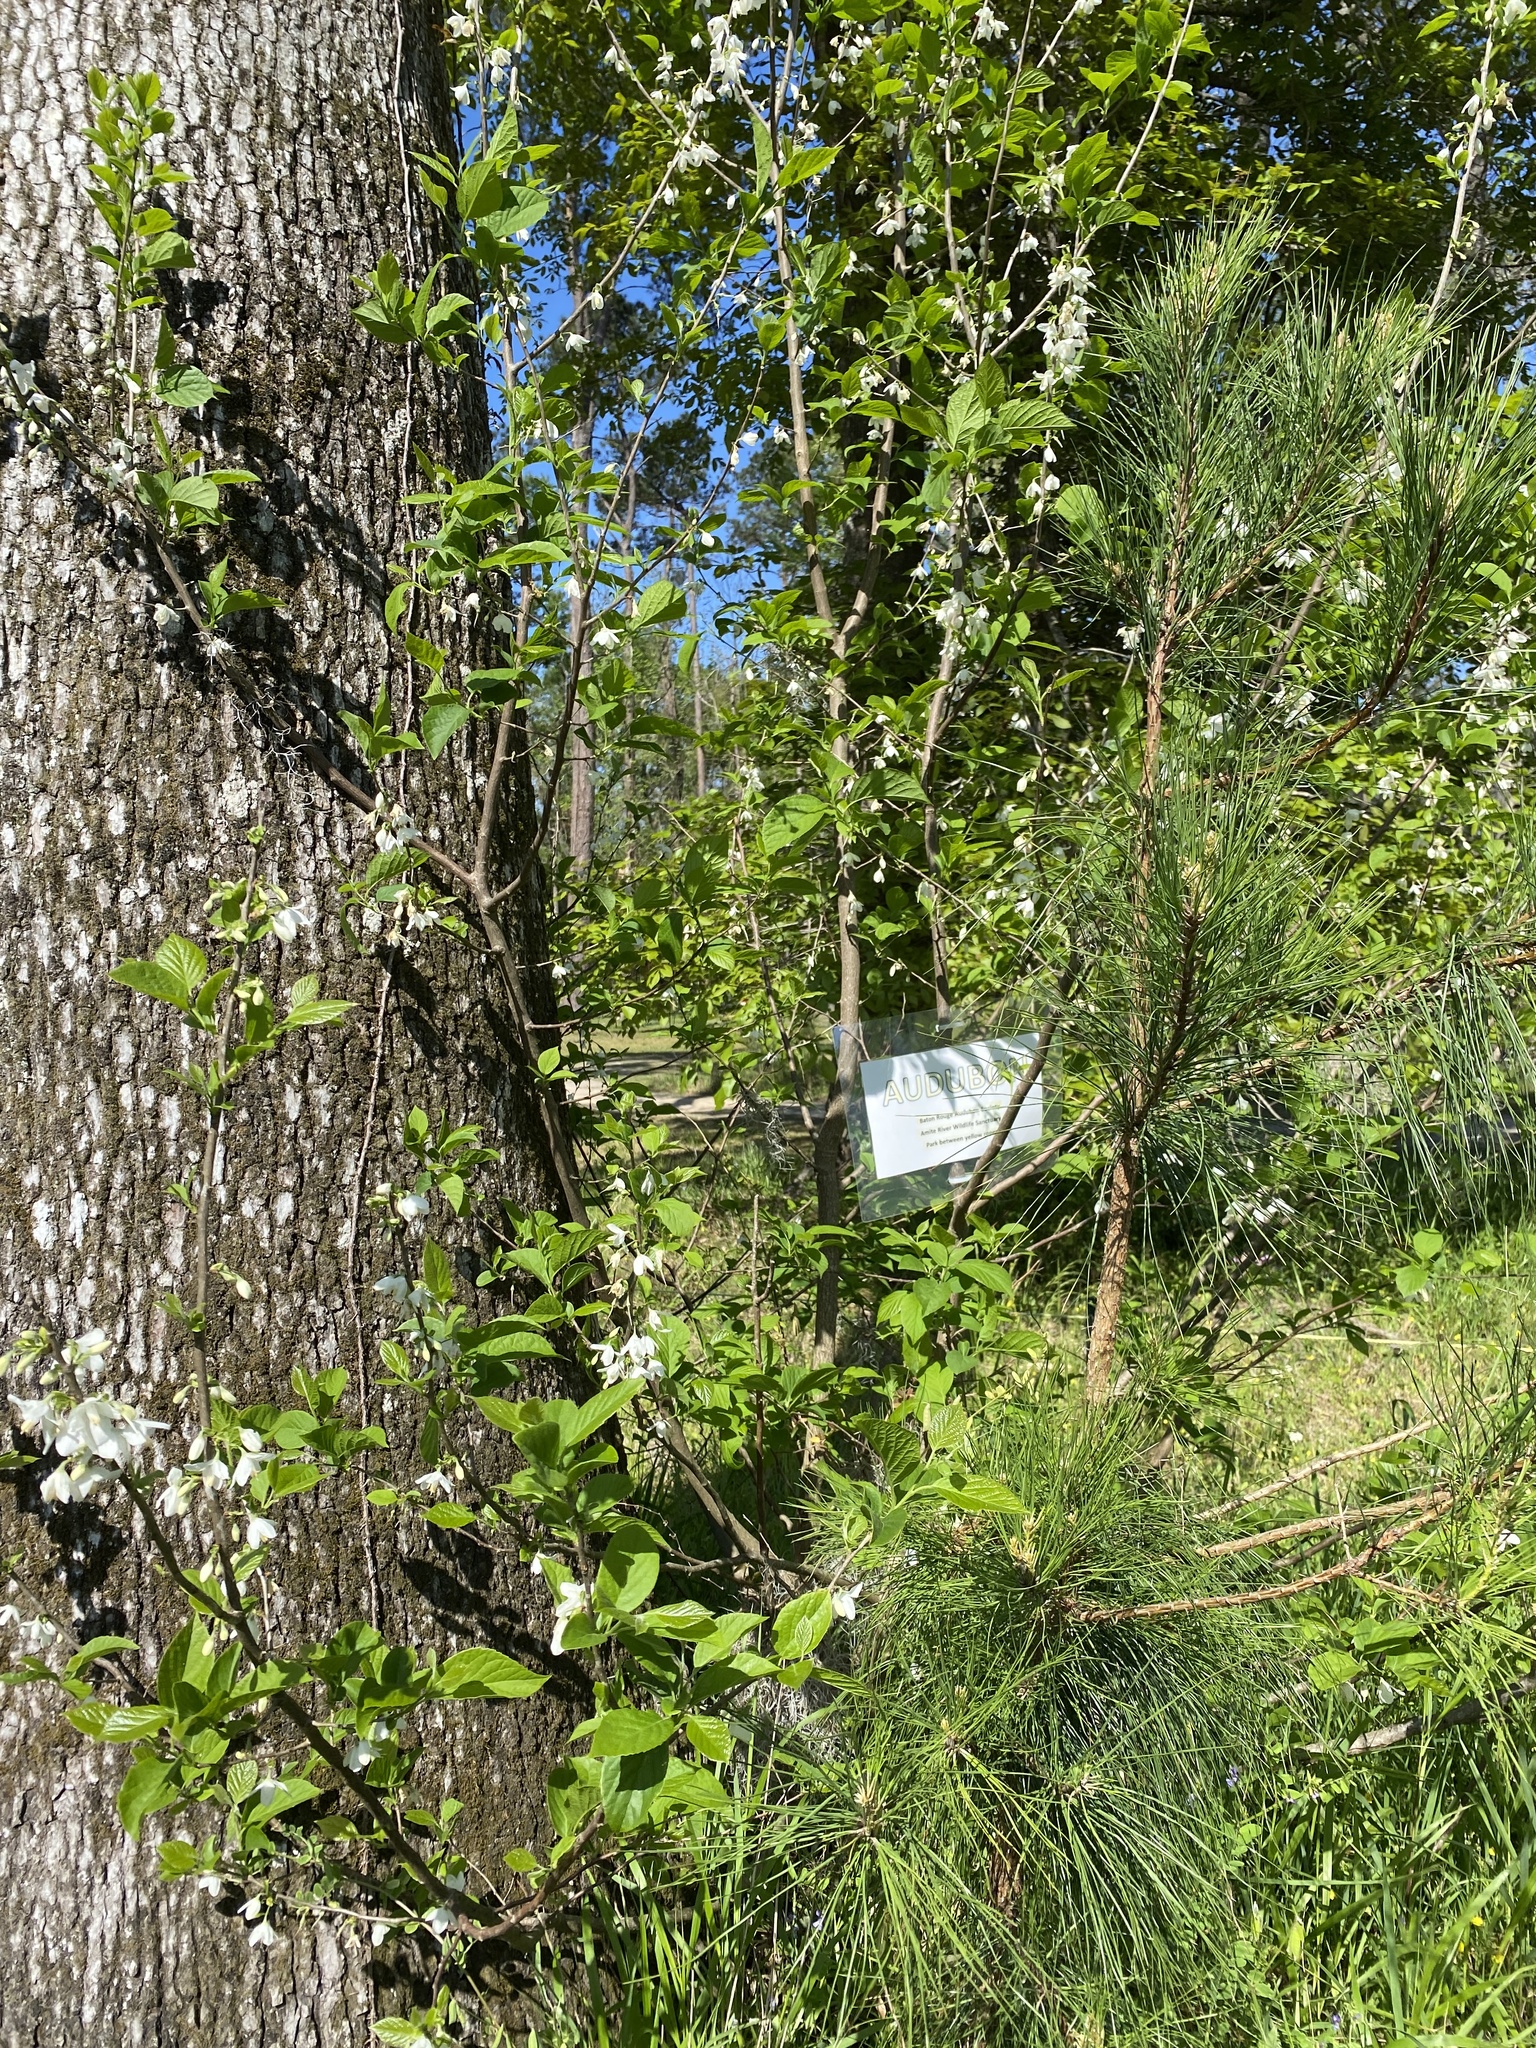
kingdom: Plantae
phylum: Tracheophyta
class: Magnoliopsida
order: Ericales
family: Styracaceae
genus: Halesia
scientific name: Halesia diptera
